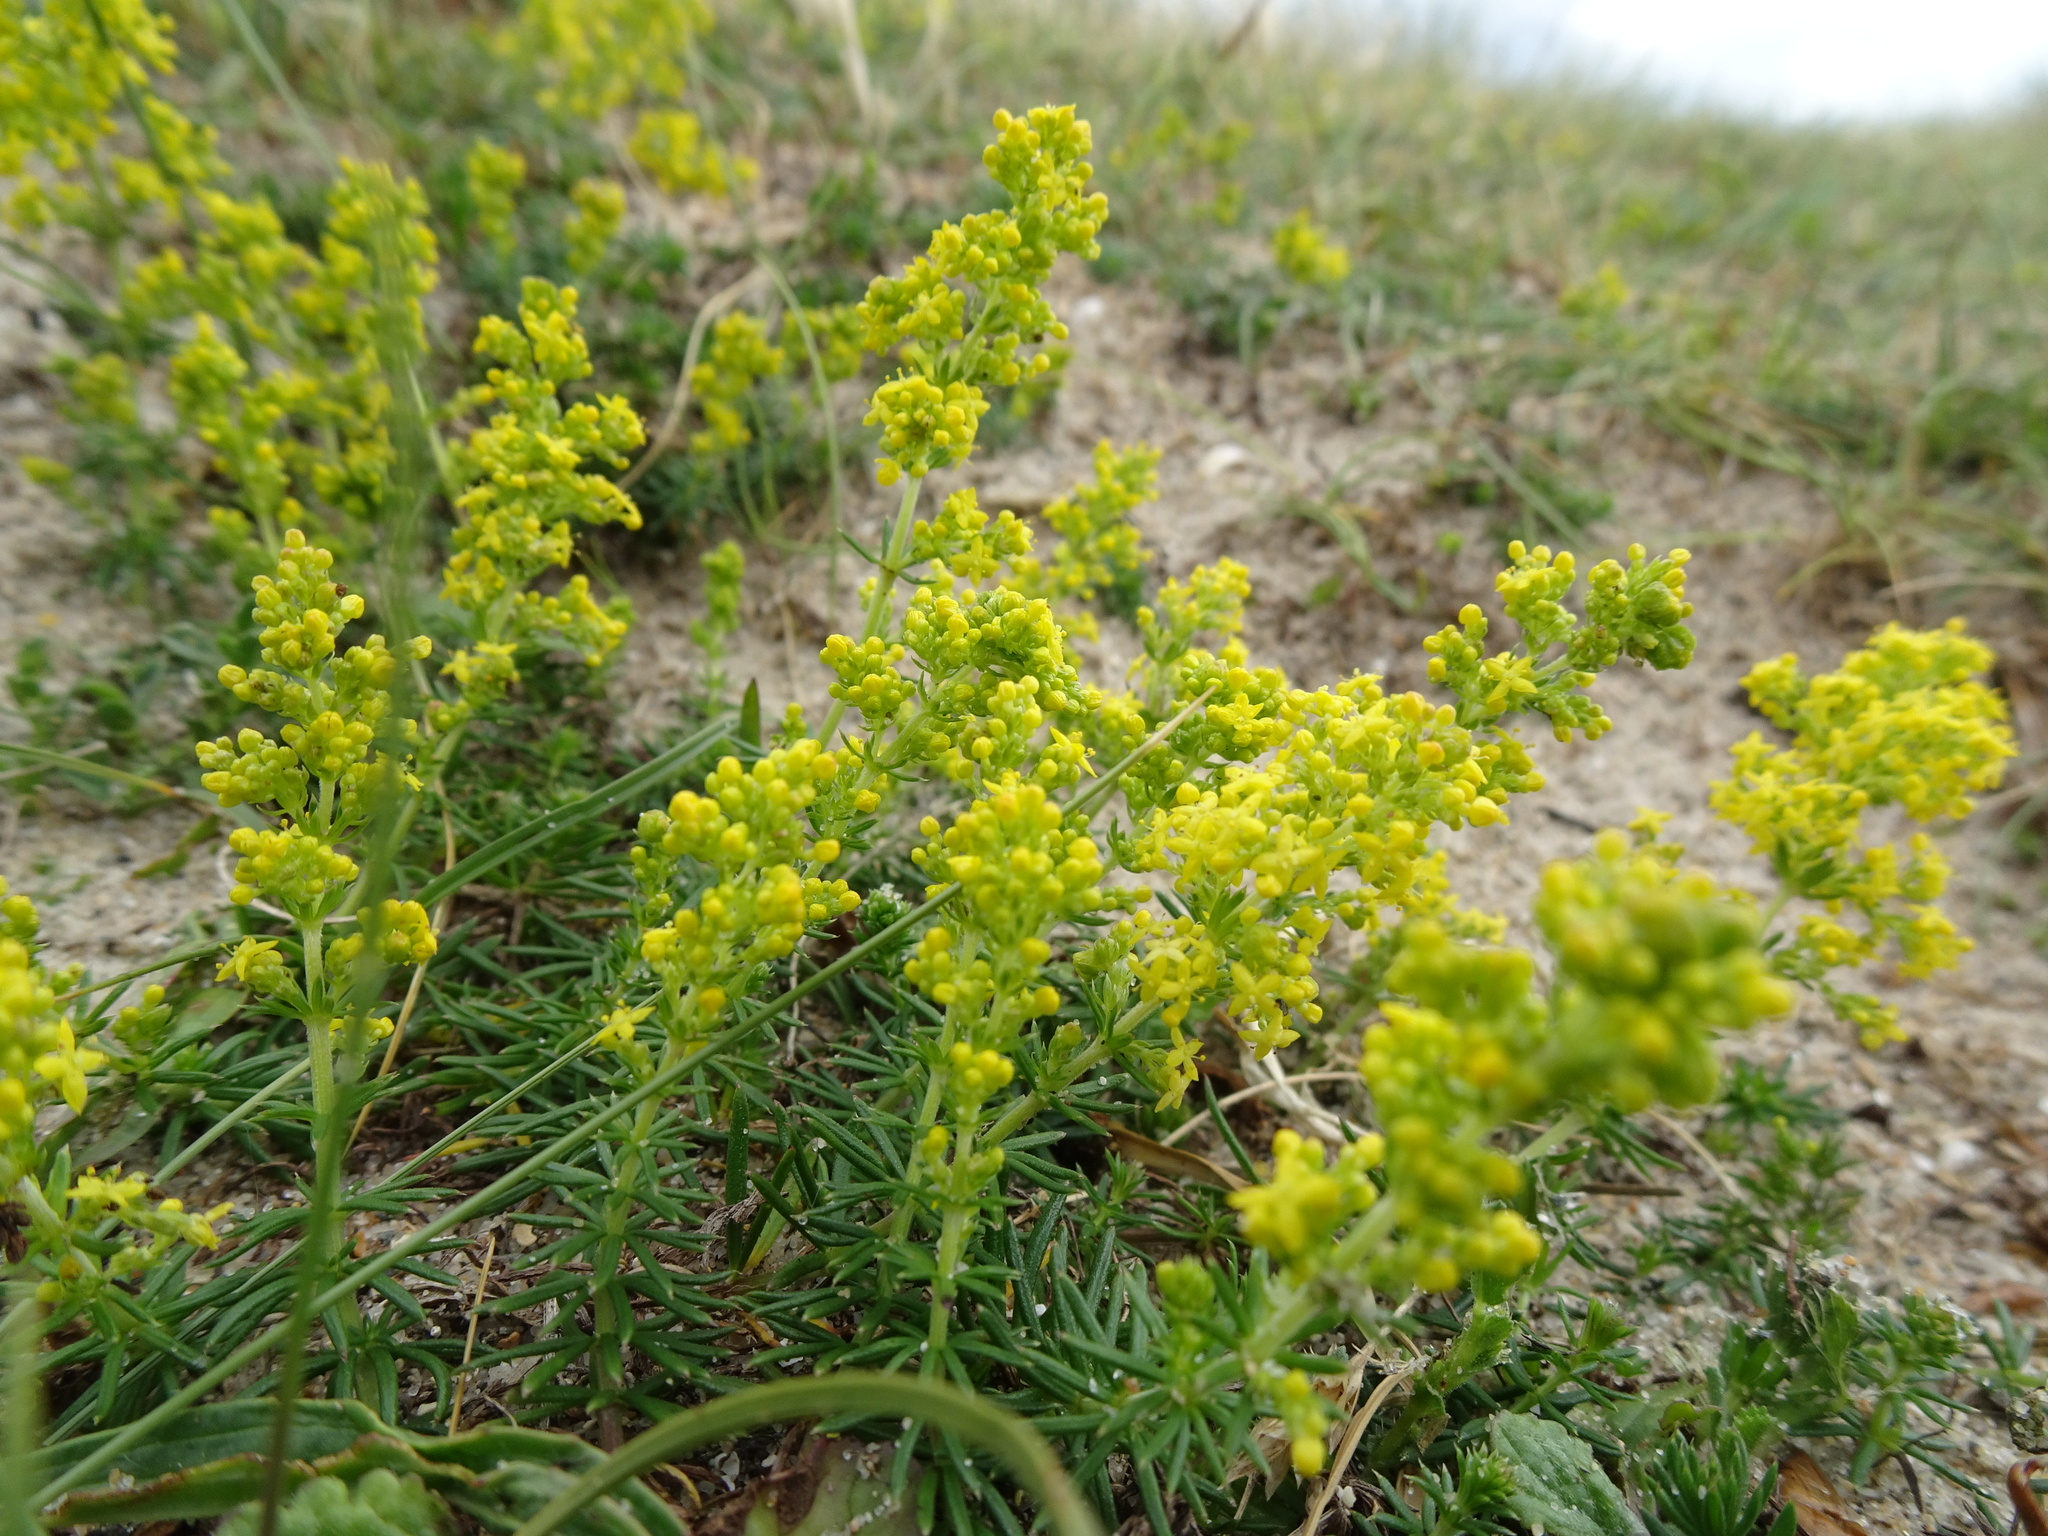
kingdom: Plantae
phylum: Tracheophyta
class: Magnoliopsida
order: Gentianales
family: Rubiaceae
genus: Galium
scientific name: Galium arenarium
